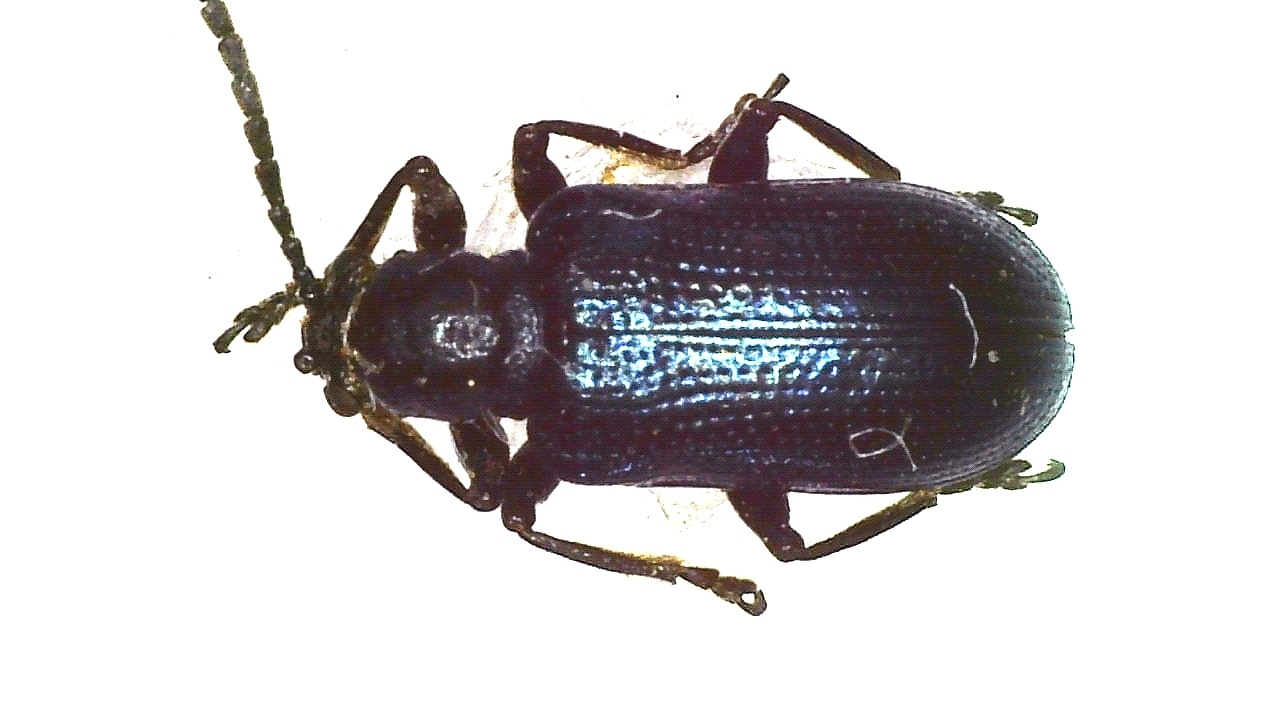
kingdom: Animalia
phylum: Arthropoda
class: Insecta
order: Coleoptera
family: Chrysomelidae
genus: Lema
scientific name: Lema cyanella
